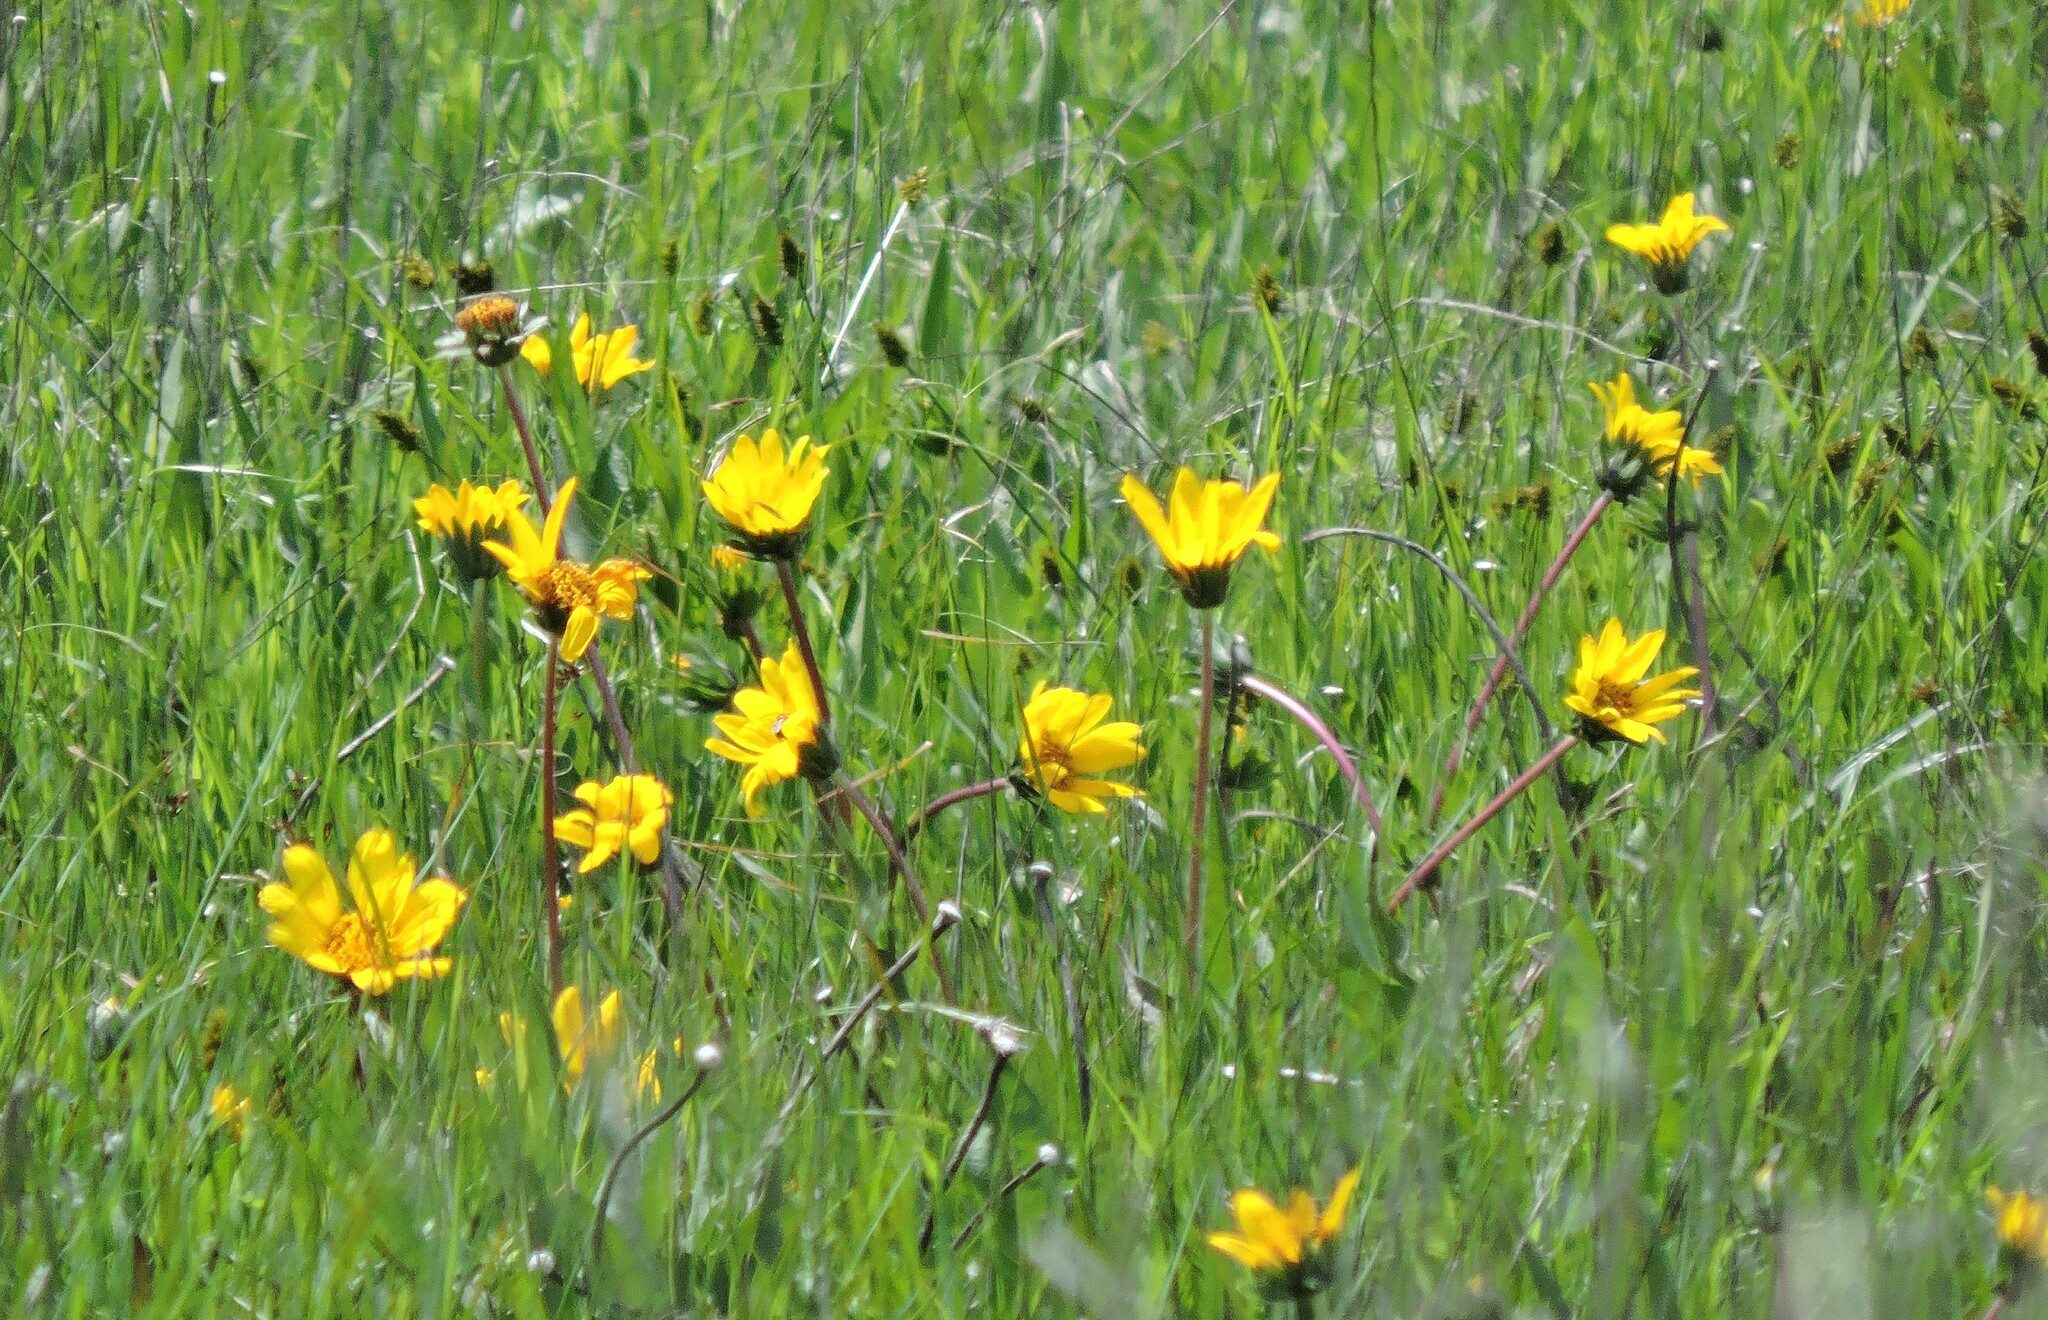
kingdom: Plantae
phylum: Tracheophyta
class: Magnoliopsida
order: Asterales
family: Asteraceae
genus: Wyethia
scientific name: Wyethia angustifolia
